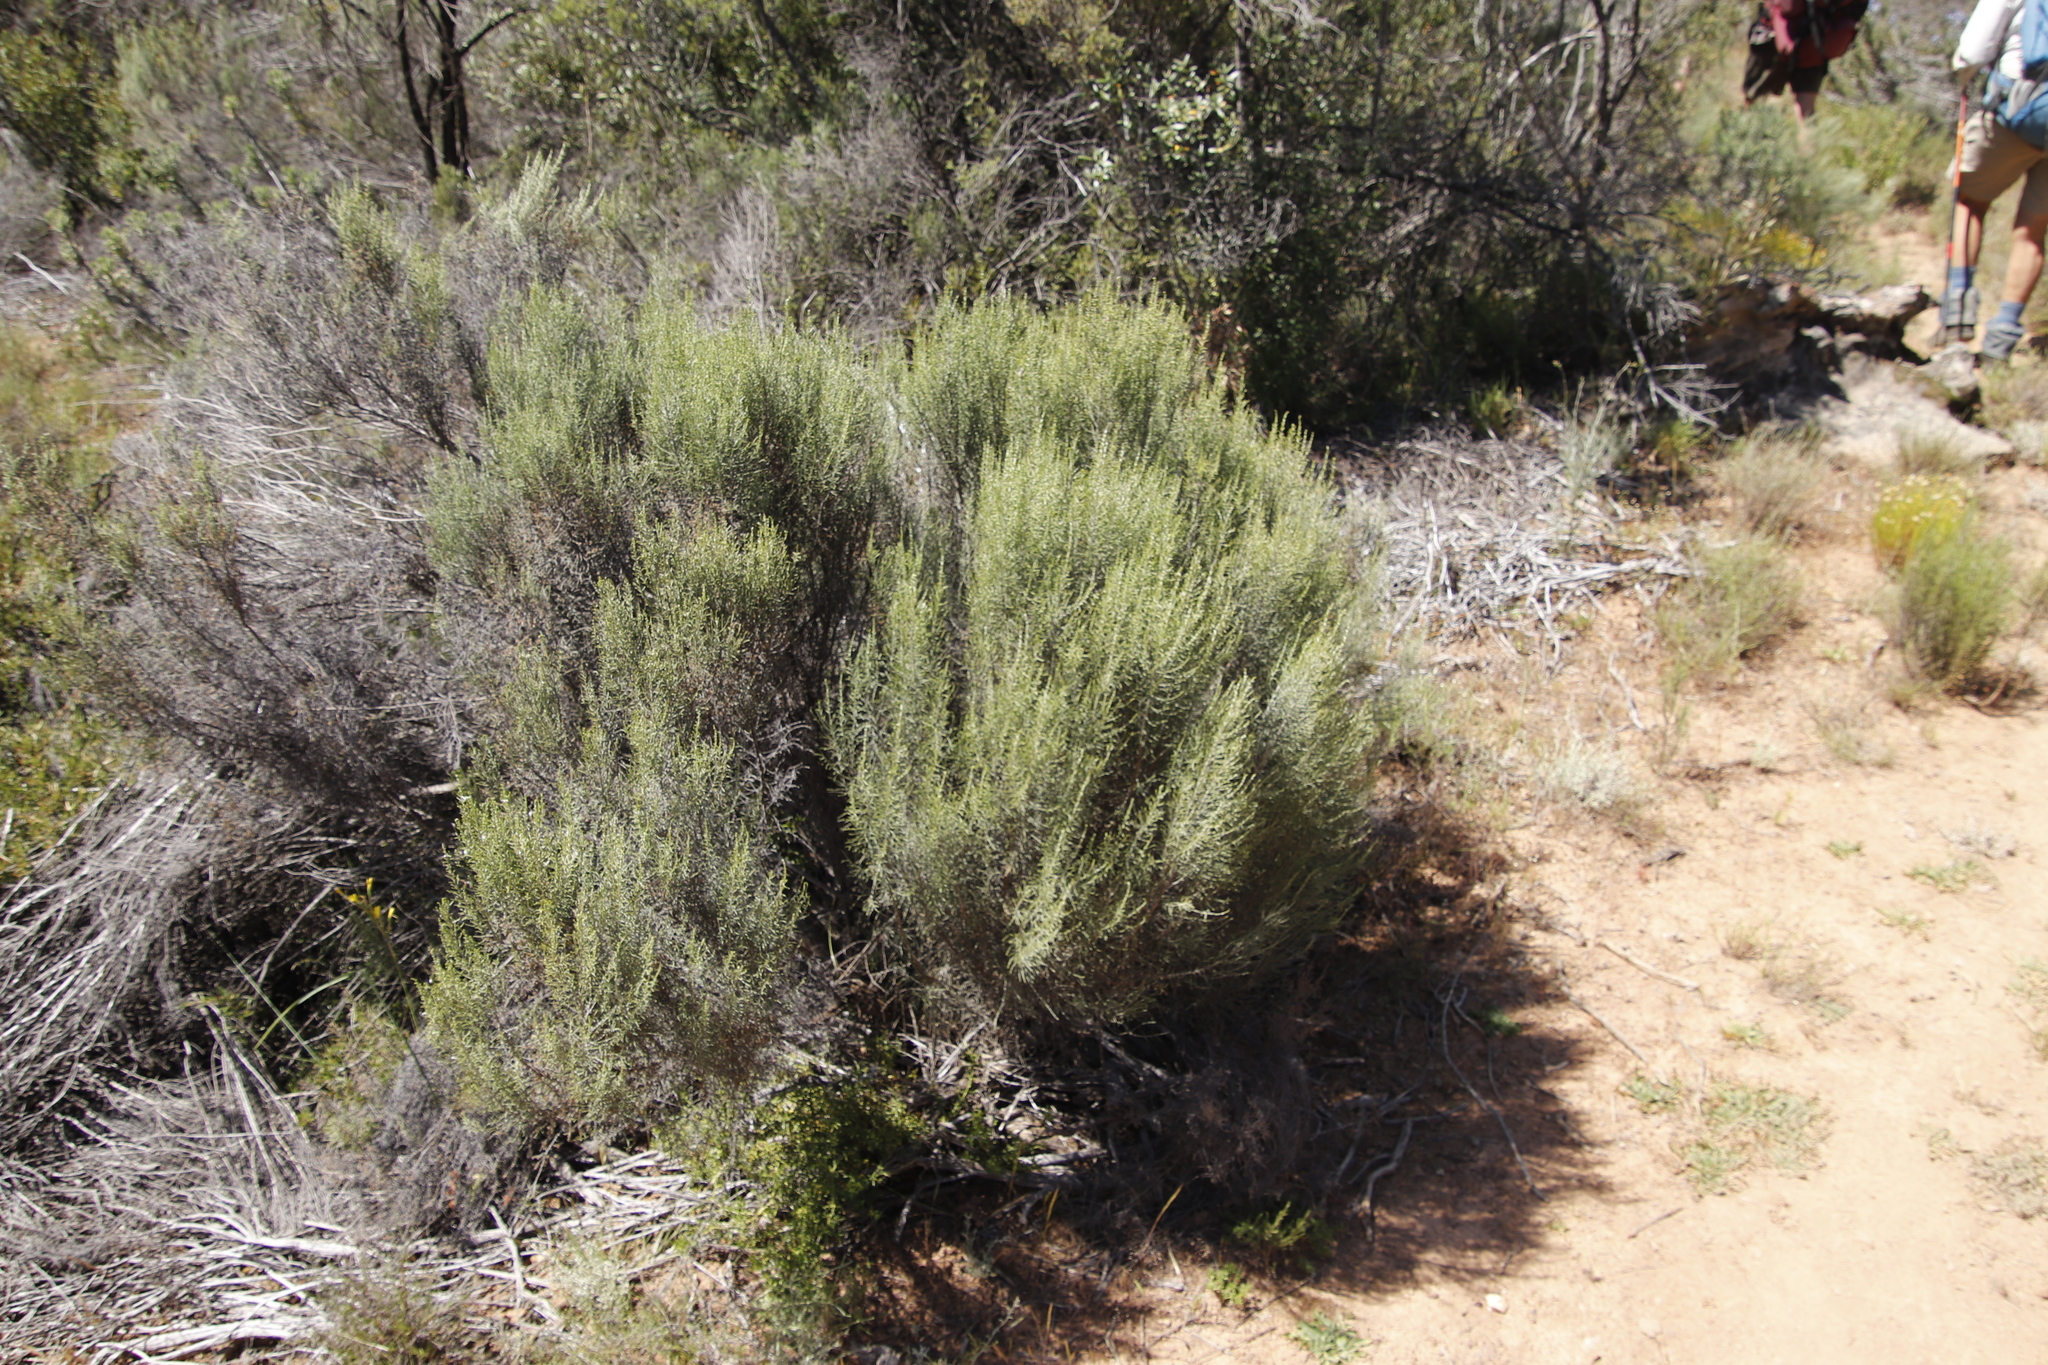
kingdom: Plantae
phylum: Tracheophyta
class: Magnoliopsida
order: Asterales
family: Asteraceae
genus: Dicerothamnus
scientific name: Dicerothamnus rhinocerotis
